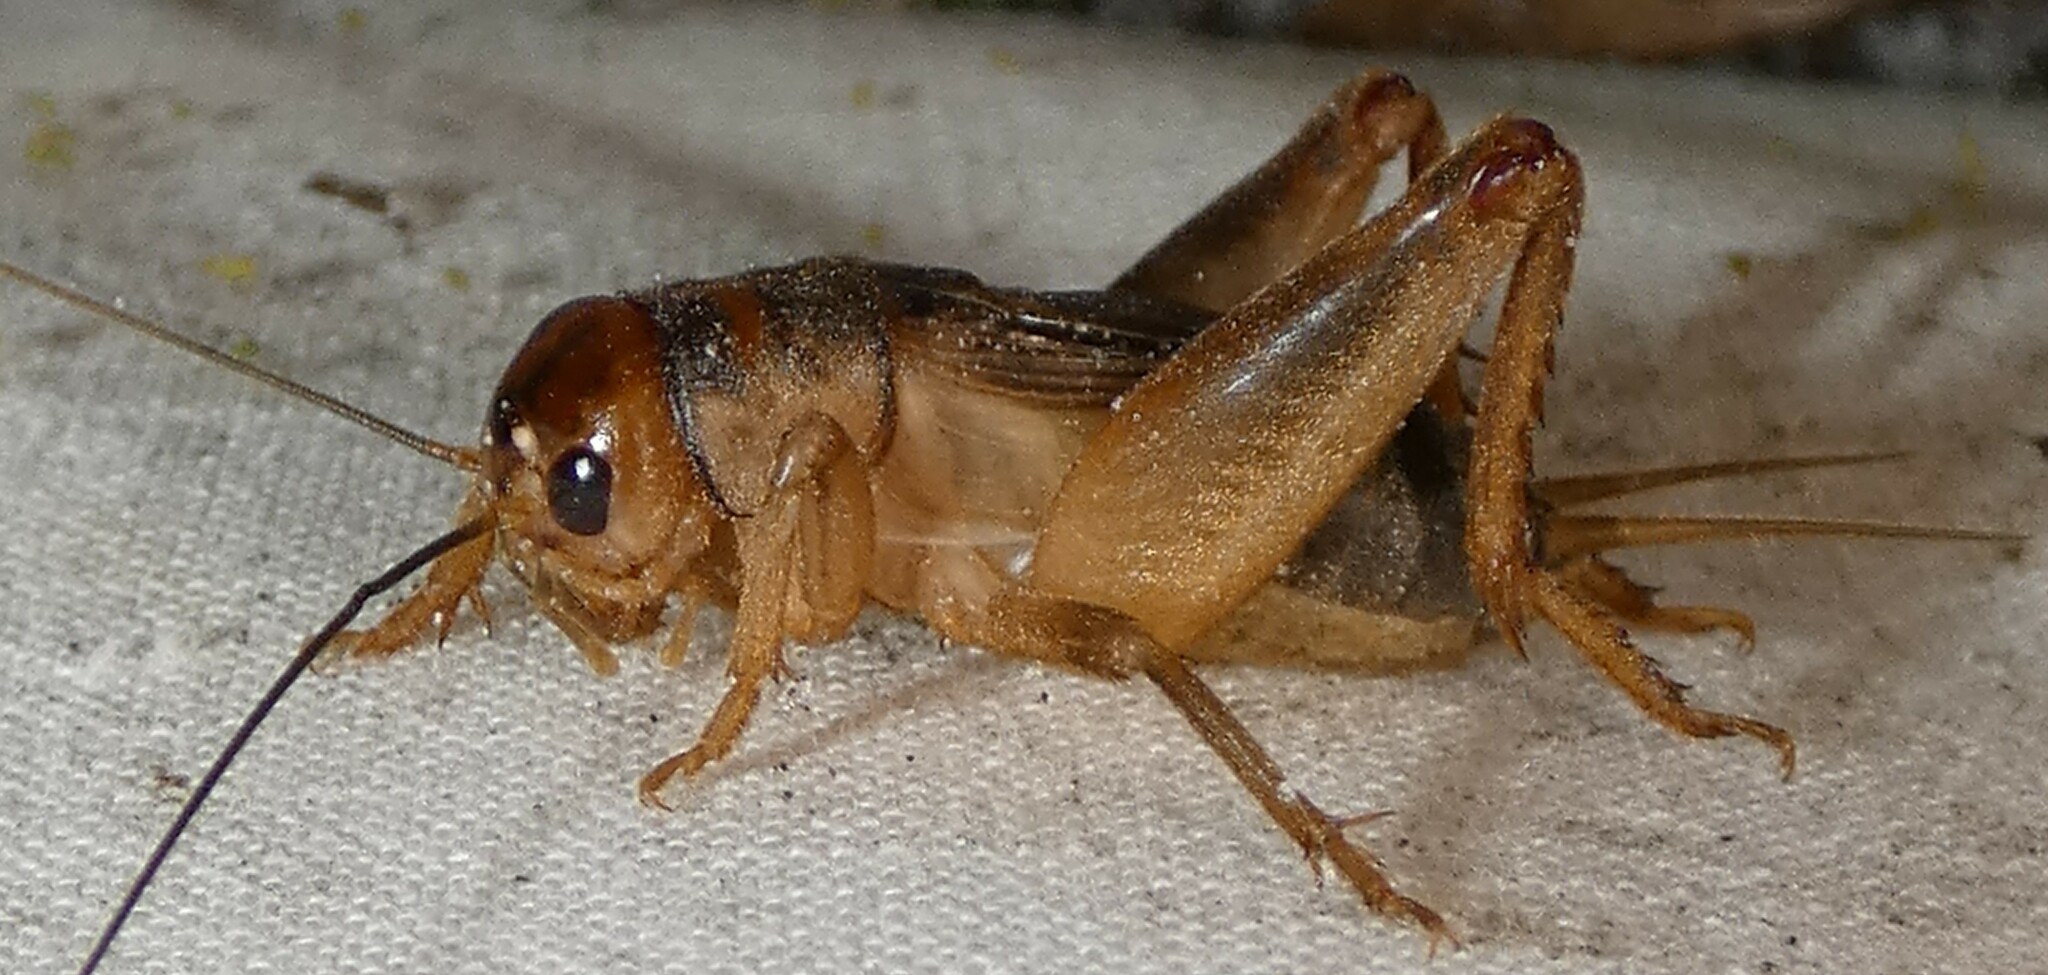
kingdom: Animalia
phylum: Arthropoda
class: Insecta
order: Orthoptera
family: Gryllidae
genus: Anurogryllus
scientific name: Anurogryllus arboreus
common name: Common short-tailed cricket
